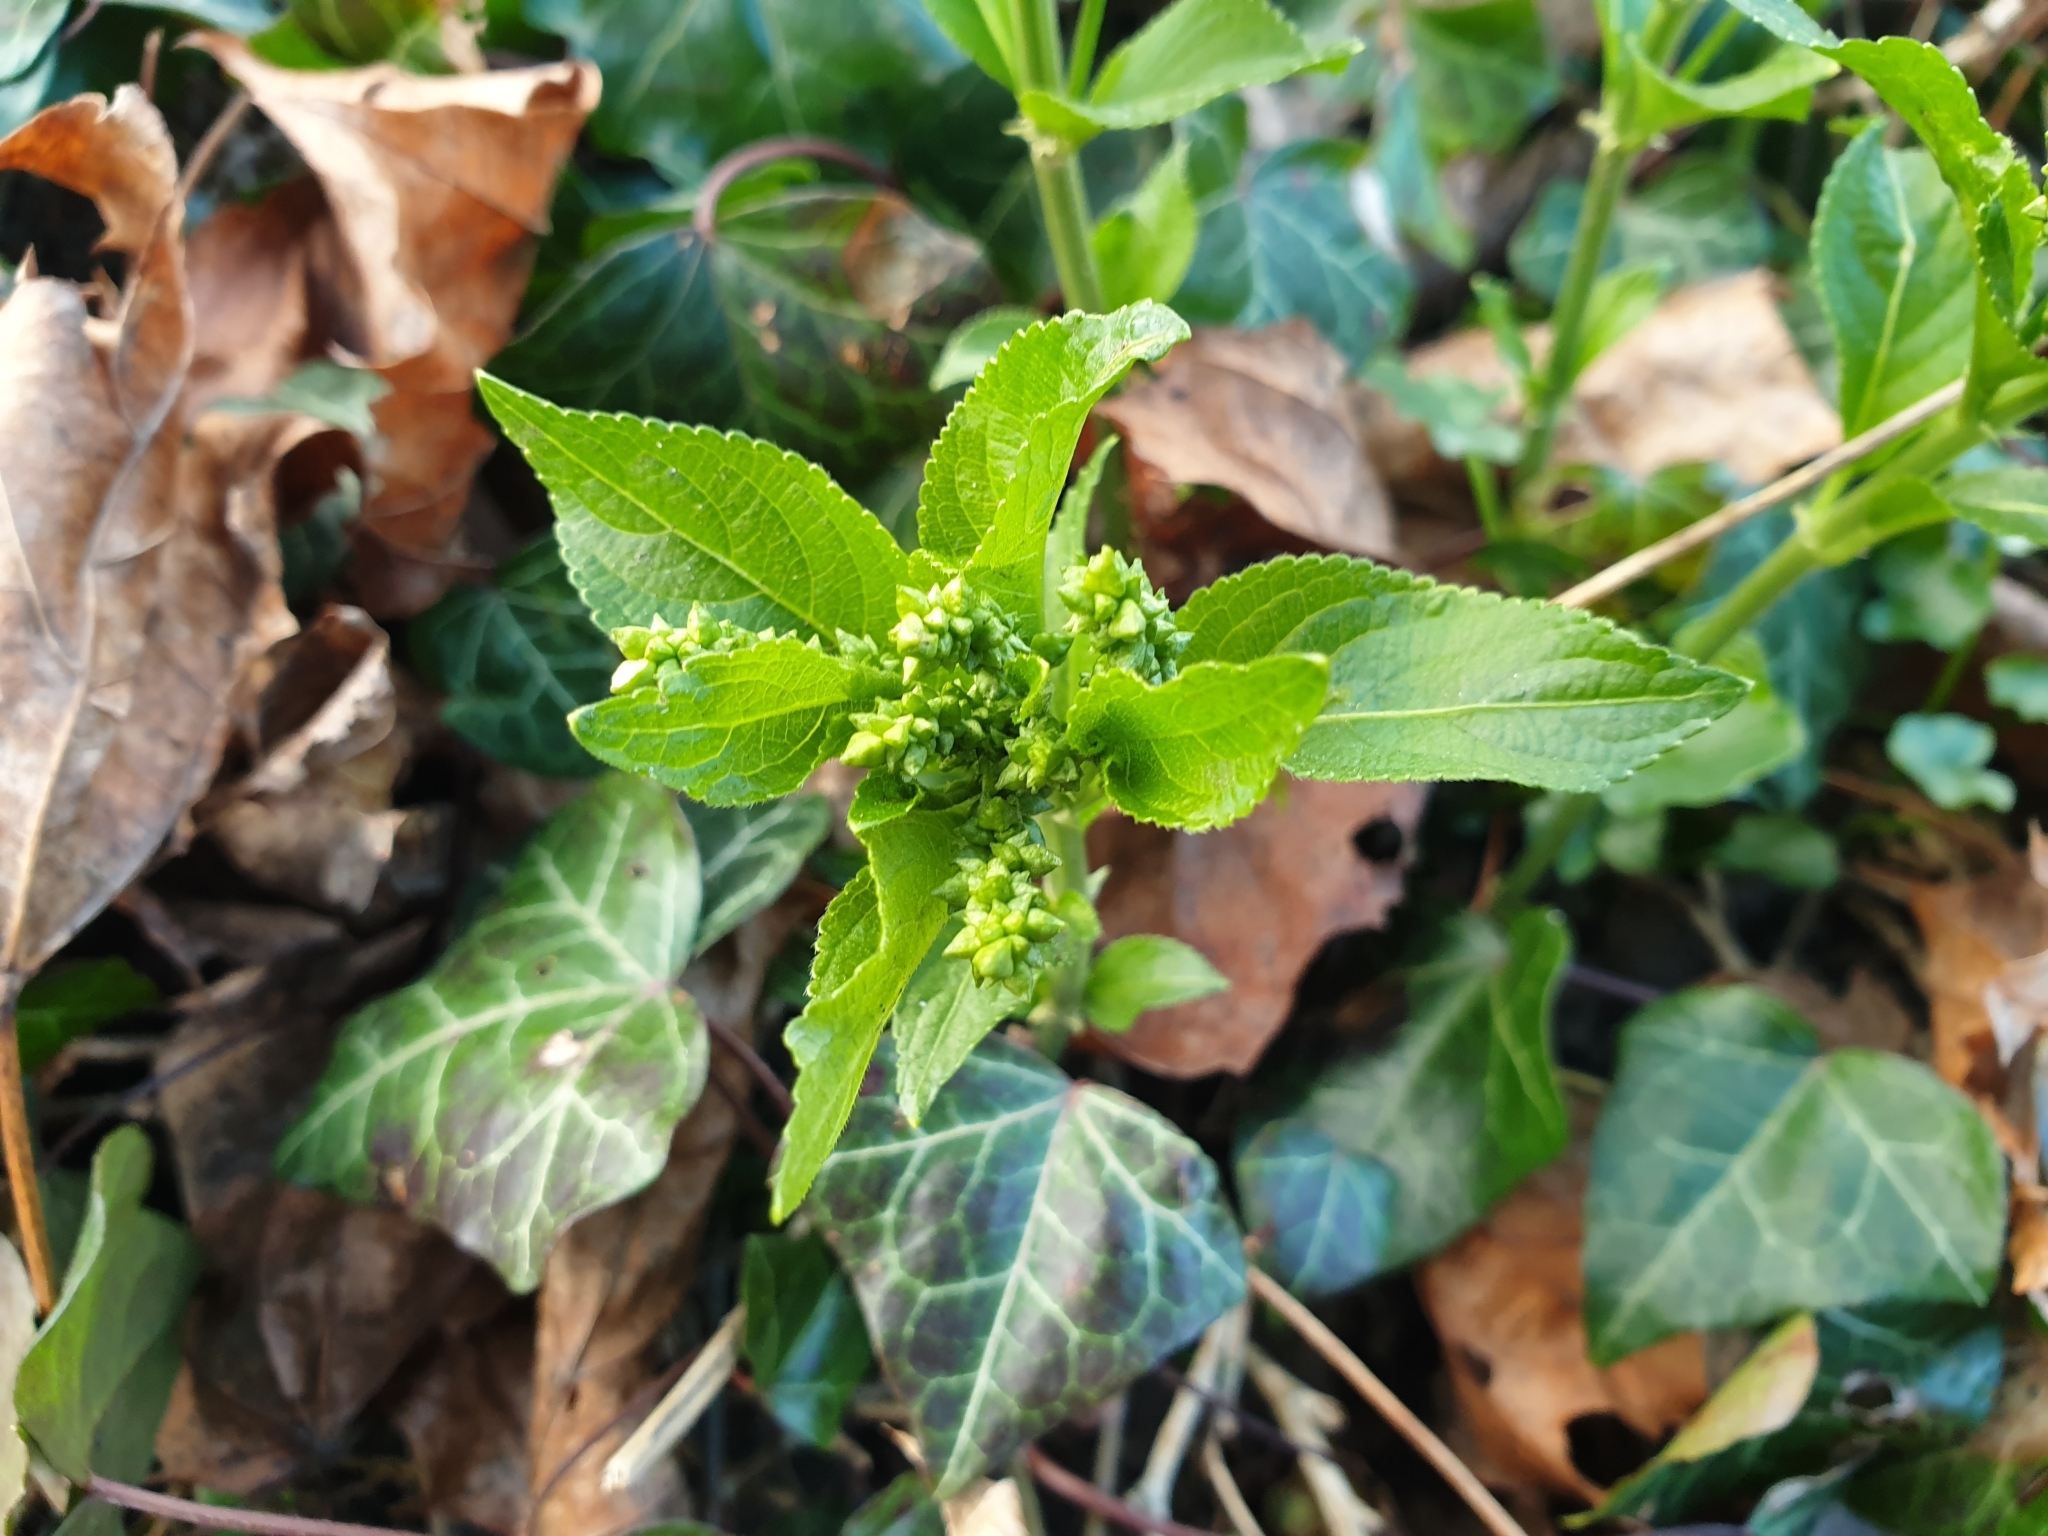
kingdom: Plantae
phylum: Tracheophyta
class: Magnoliopsida
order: Malpighiales
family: Euphorbiaceae
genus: Mercurialis
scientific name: Mercurialis perennis
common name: Dog mercury
